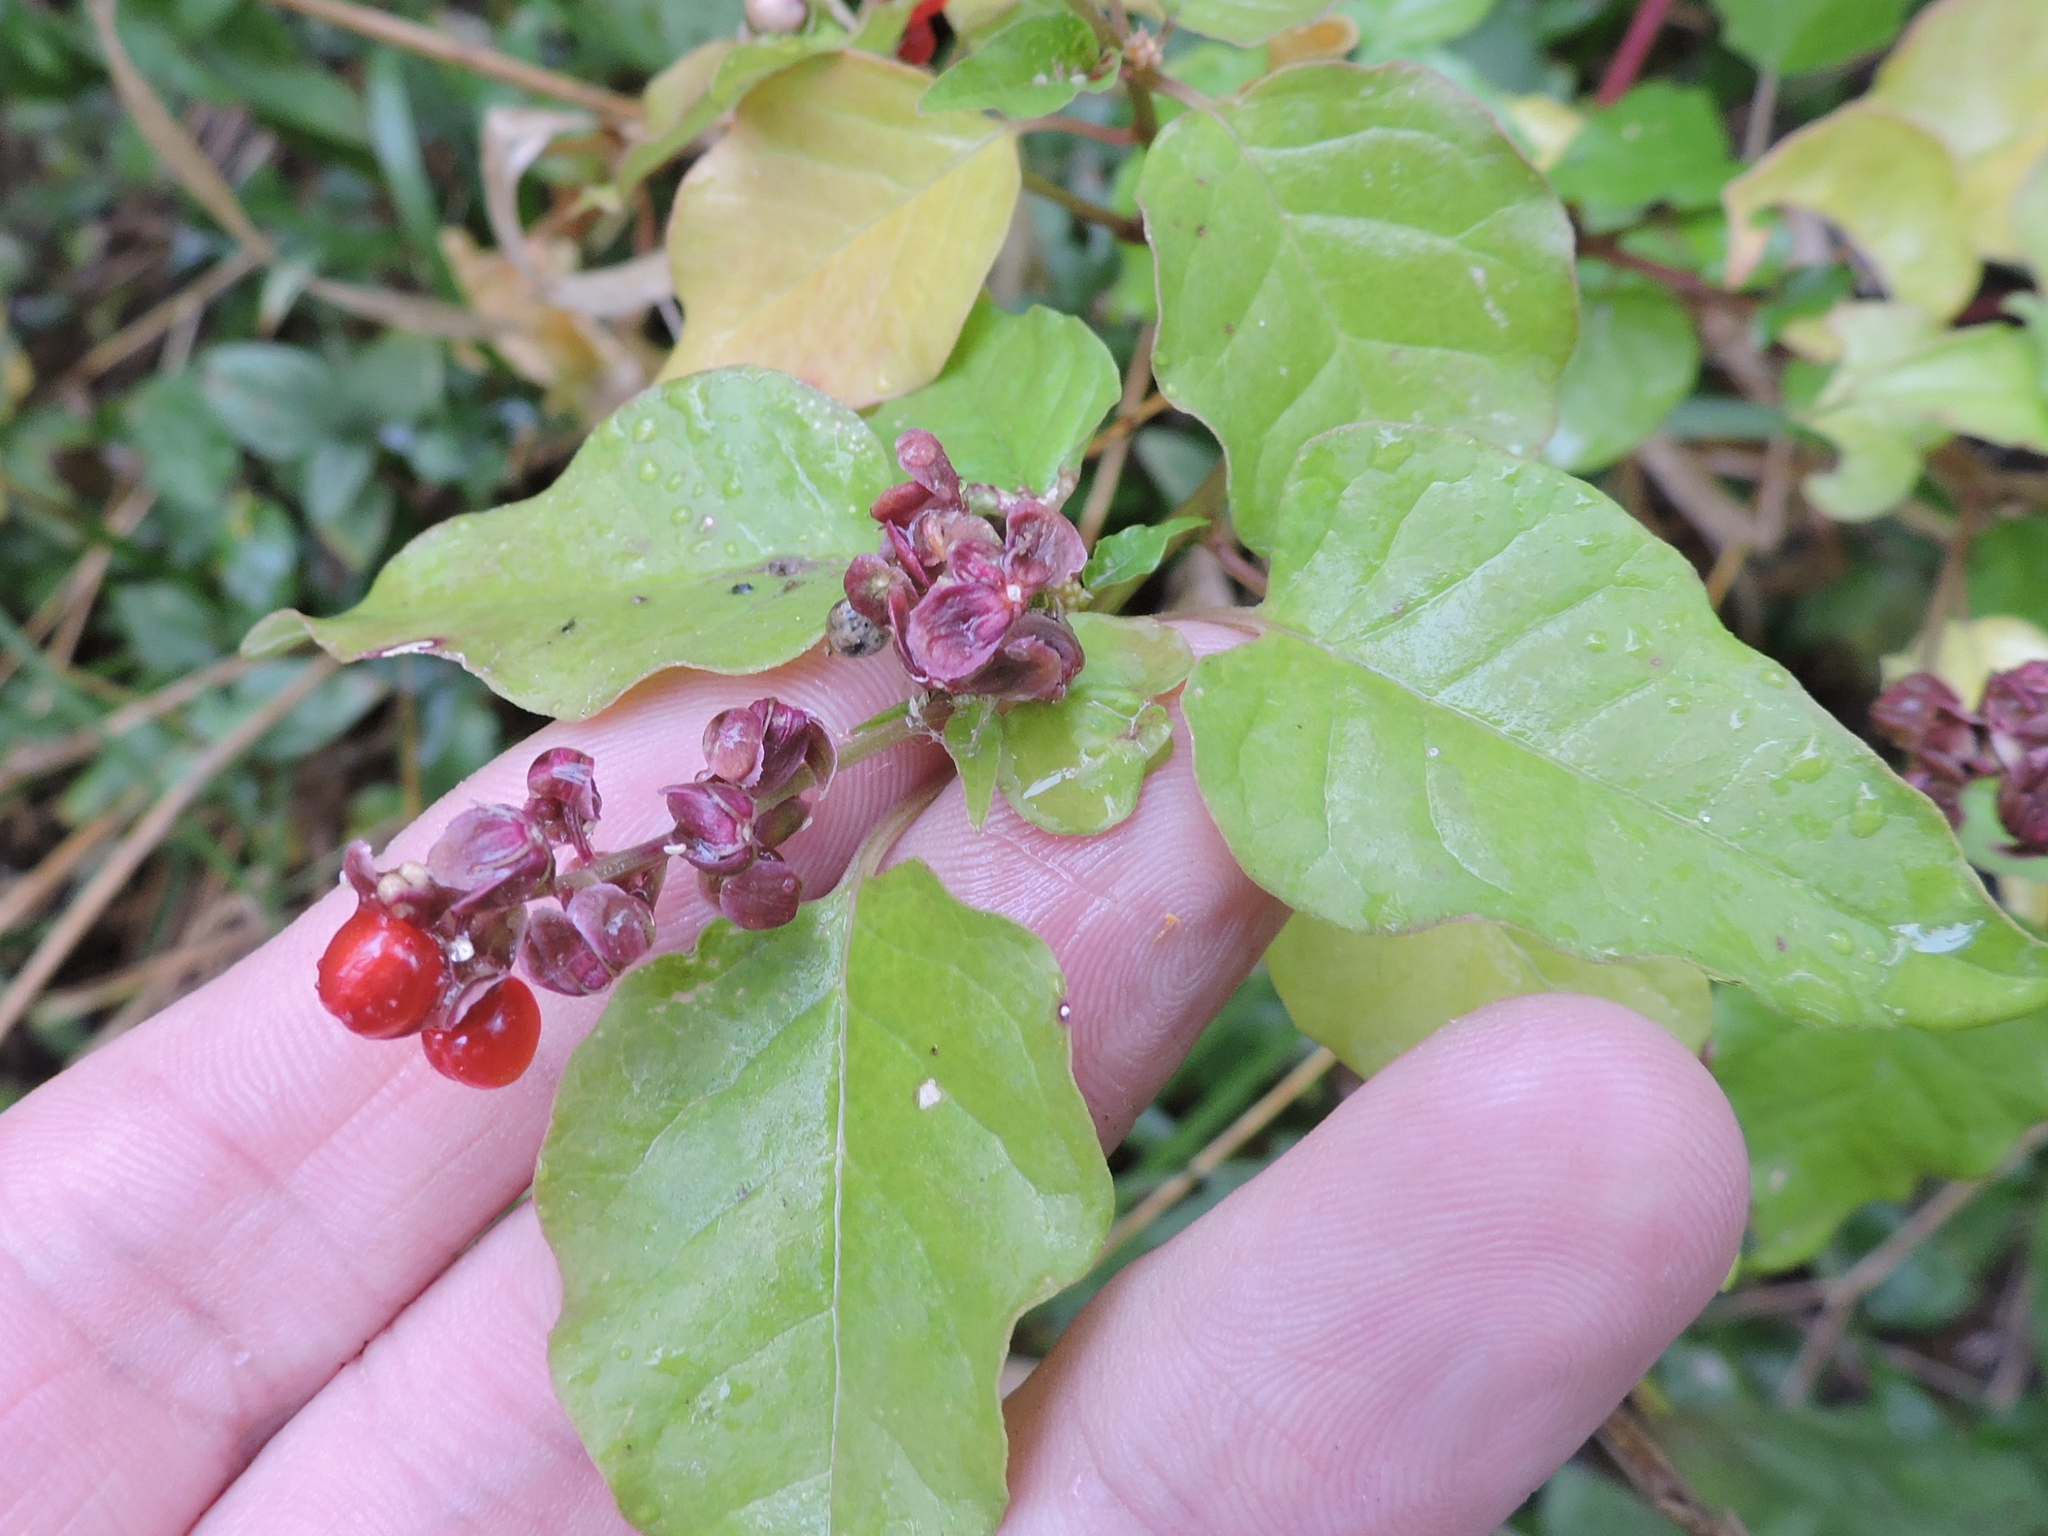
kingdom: Plantae
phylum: Tracheophyta
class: Magnoliopsida
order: Caryophyllales
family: Phytolaccaceae
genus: Rivina
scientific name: Rivina humilis
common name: Rougeplant
